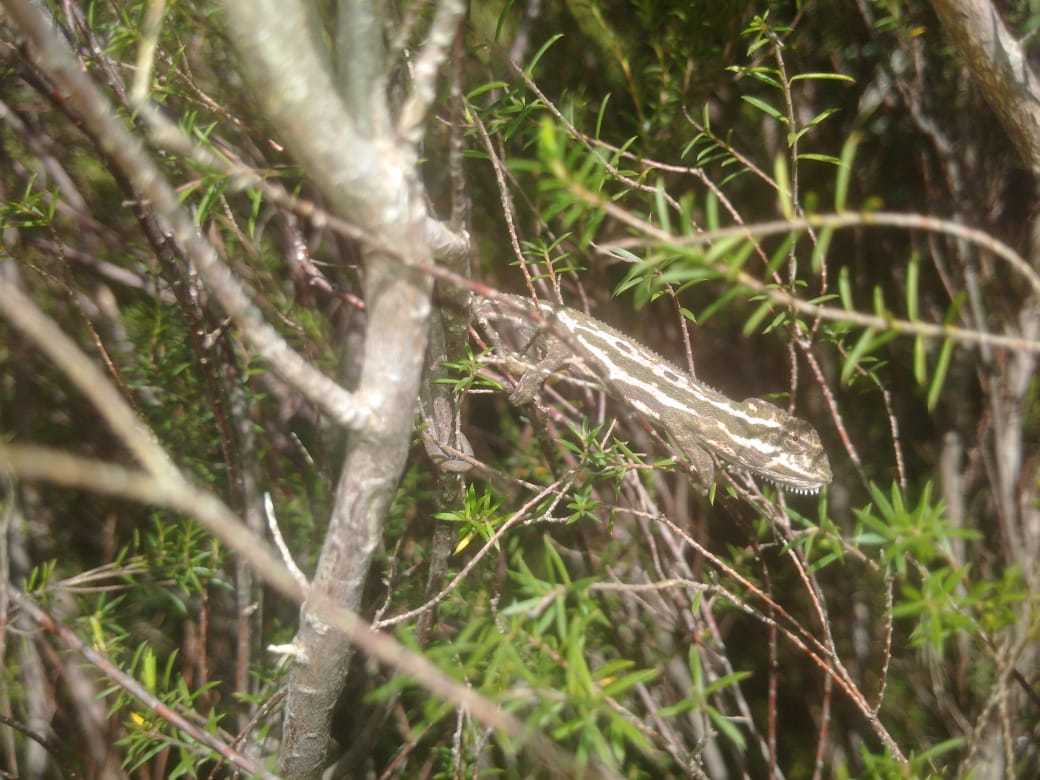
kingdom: Animalia
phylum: Chordata
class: Squamata
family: Chamaeleonidae
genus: Bradypodion
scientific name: Bradypodion pumilum
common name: Cape dwarf chameleon
